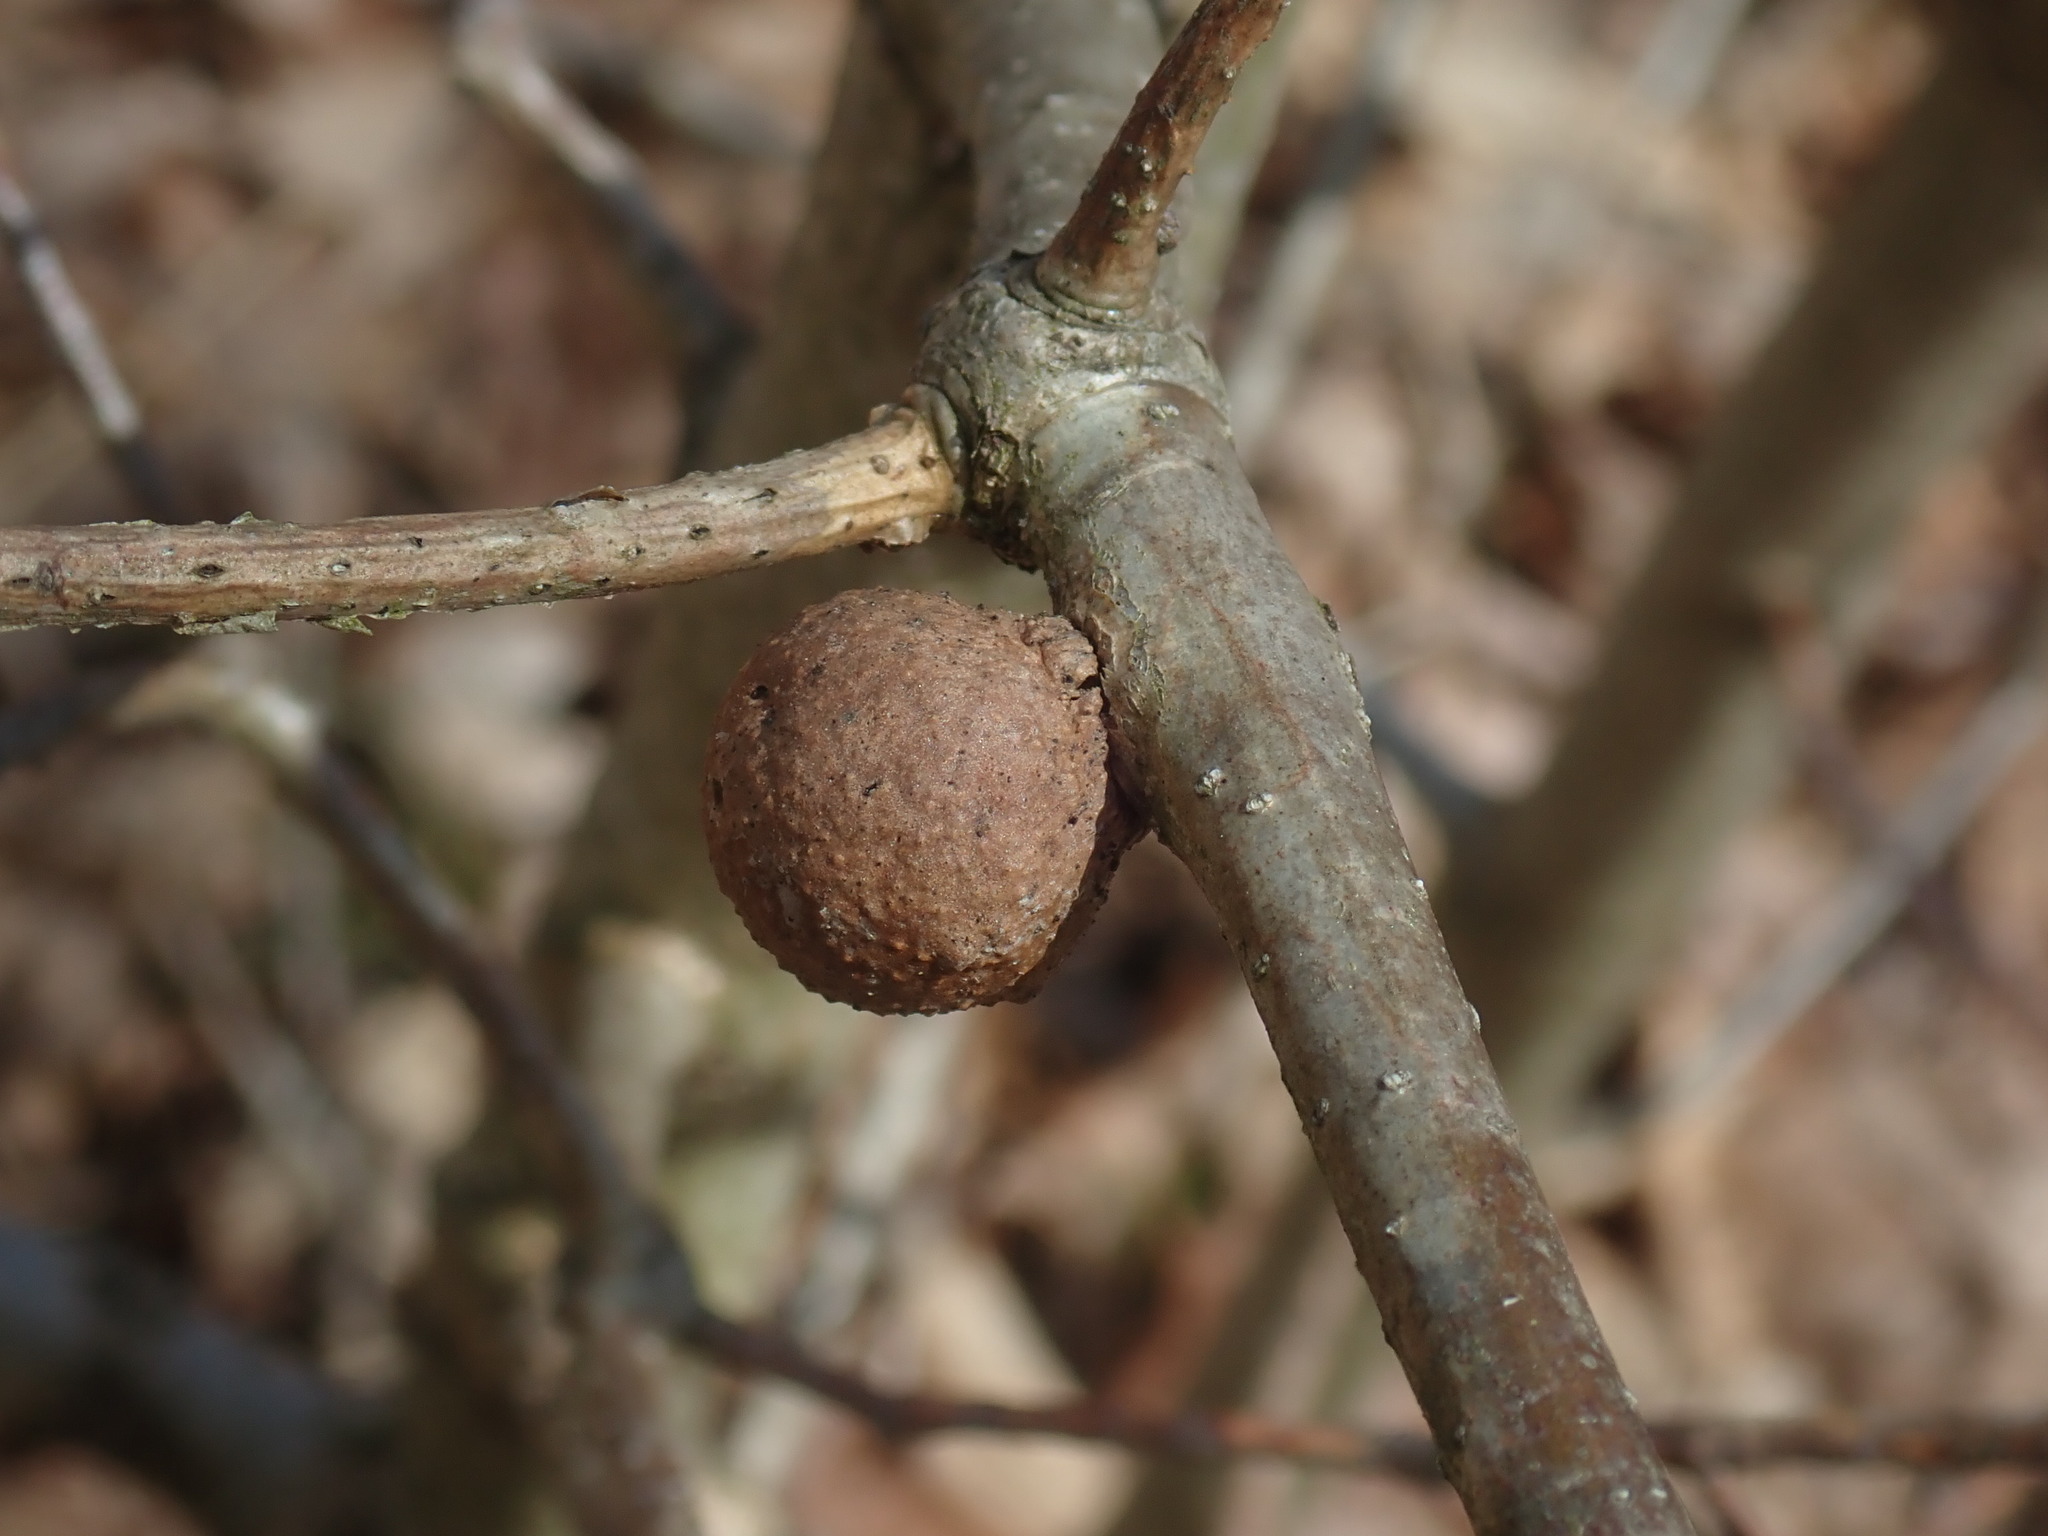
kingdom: Animalia
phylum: Arthropoda
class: Insecta
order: Hymenoptera
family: Cynipidae
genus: Disholcaspis
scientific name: Disholcaspis quercusglobulus
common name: Round bullet gall wasp
